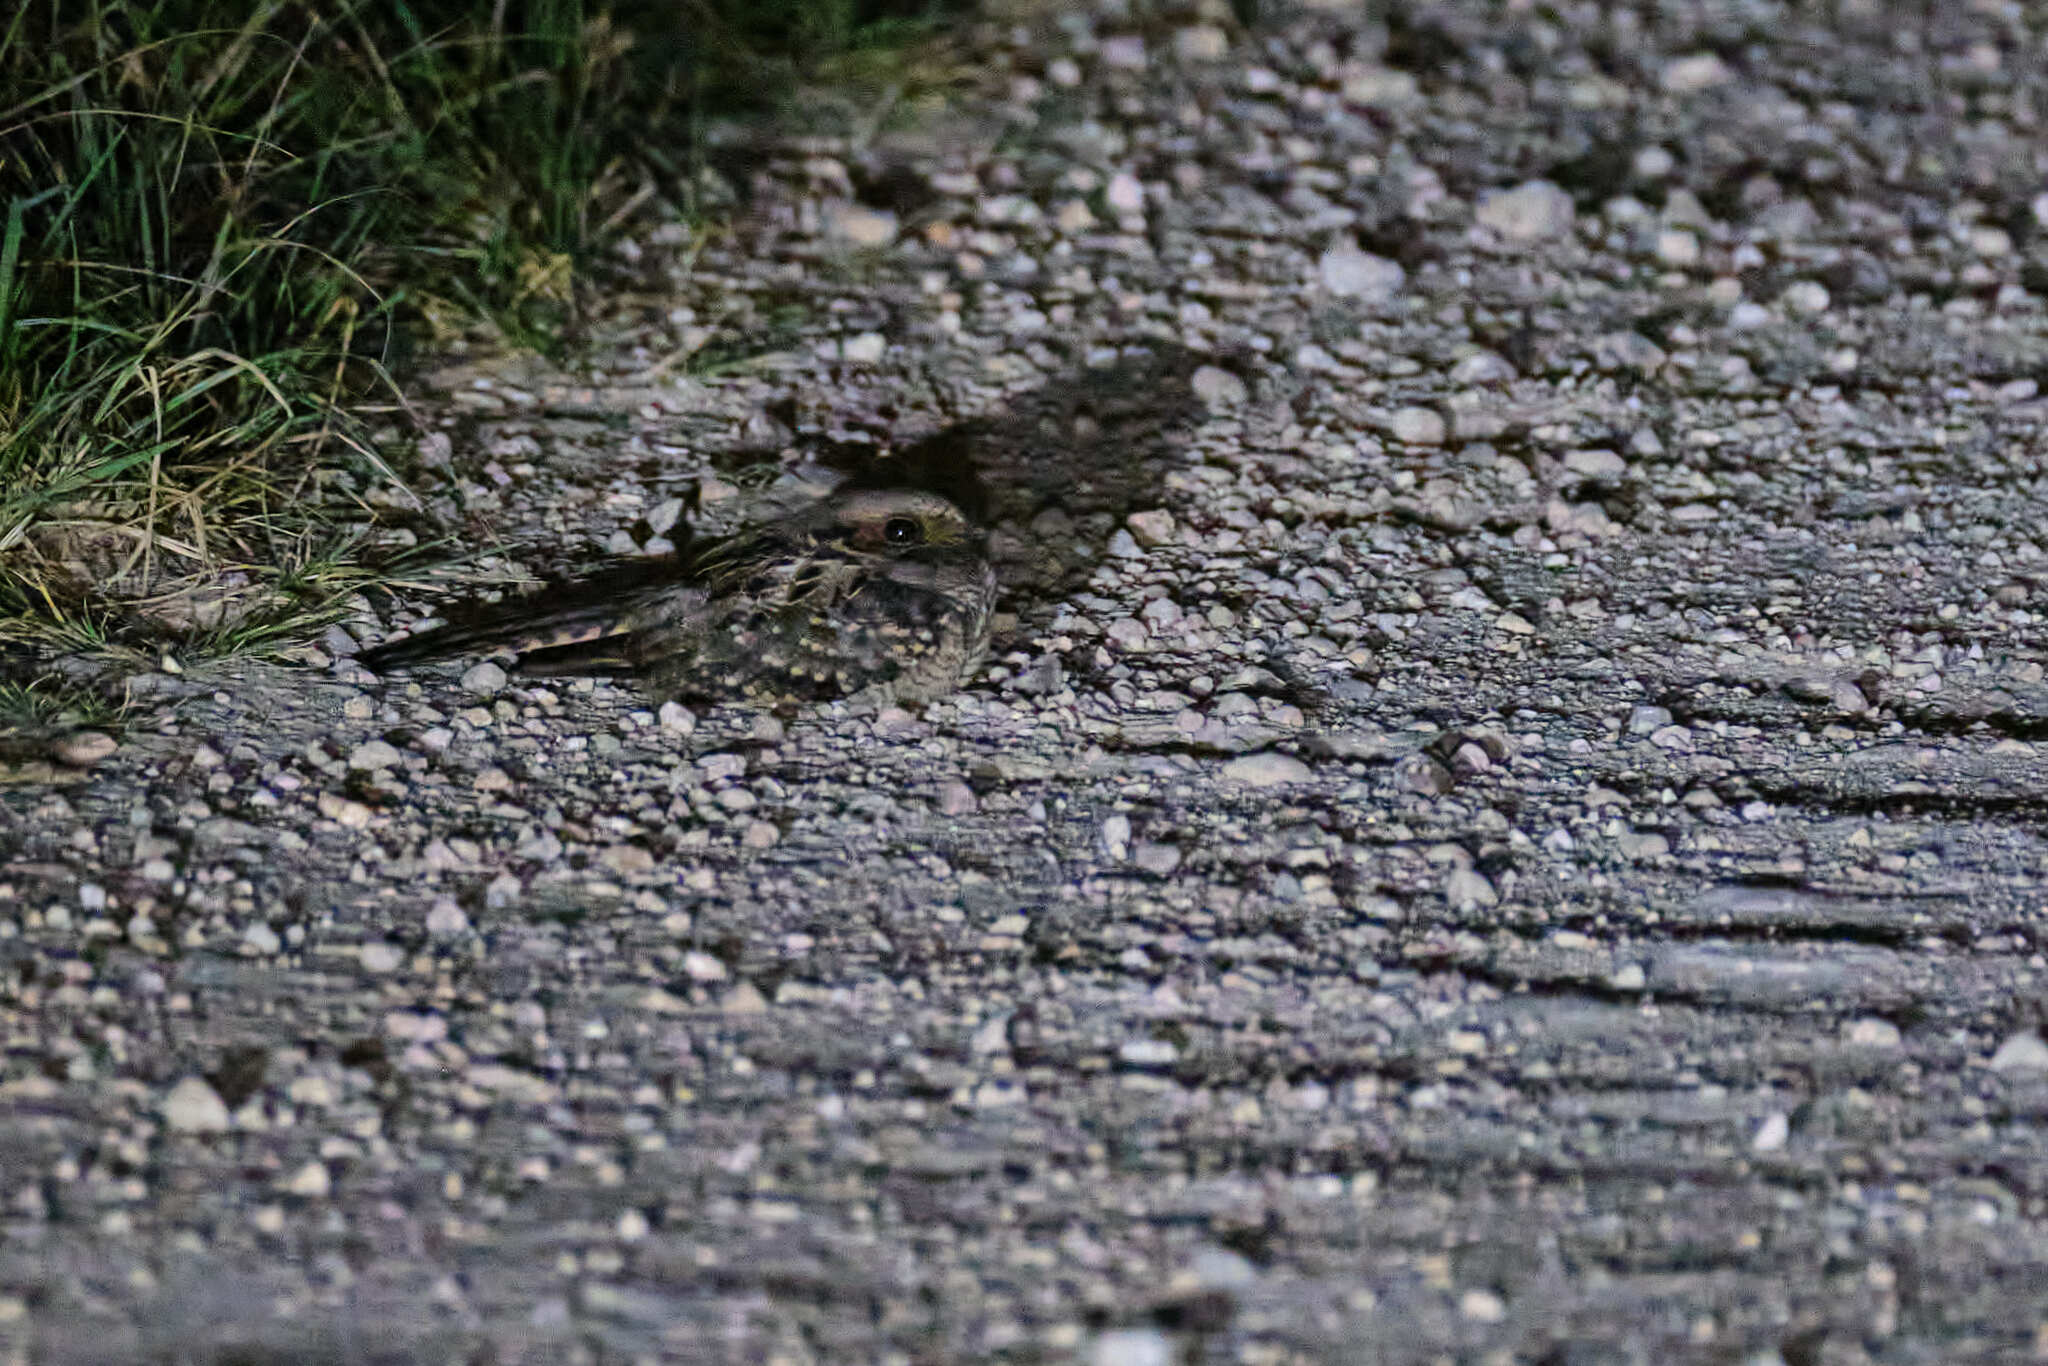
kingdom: Animalia
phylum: Chordata
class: Aves
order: Caprimulgiformes
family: Caprimulgidae
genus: Nyctidromus
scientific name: Nyctidromus albicollis
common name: Pauraque
